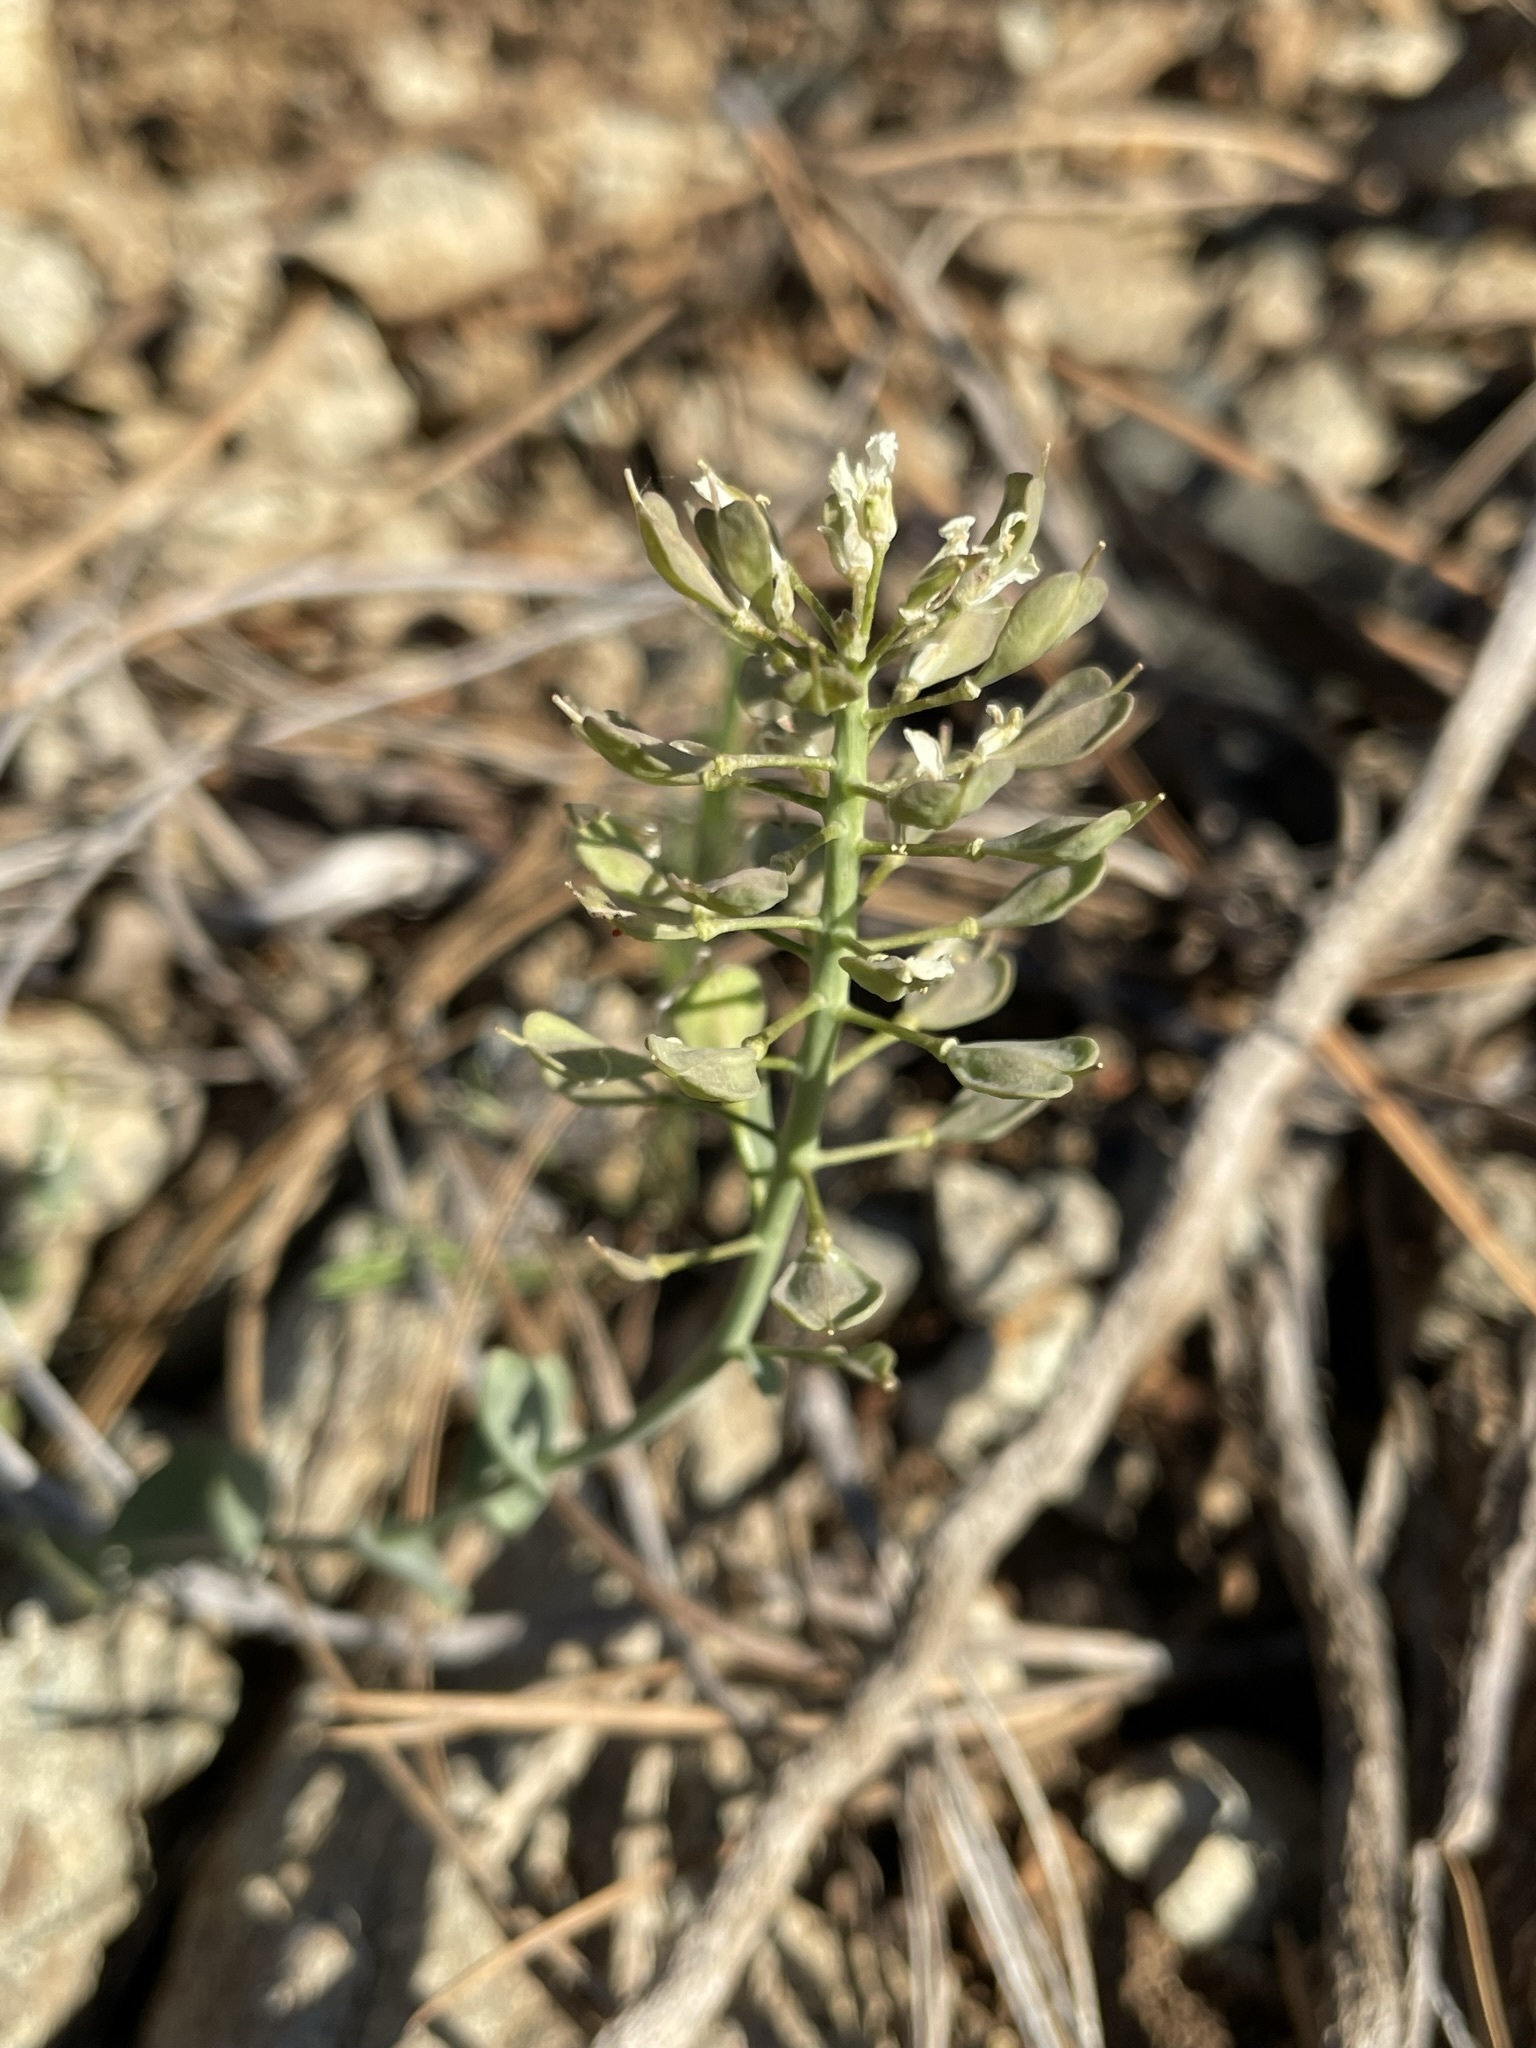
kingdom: Plantae
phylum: Tracheophyta
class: Magnoliopsida
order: Brassicales
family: Brassicaceae
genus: Noccaea
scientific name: Noccaea fendleri
